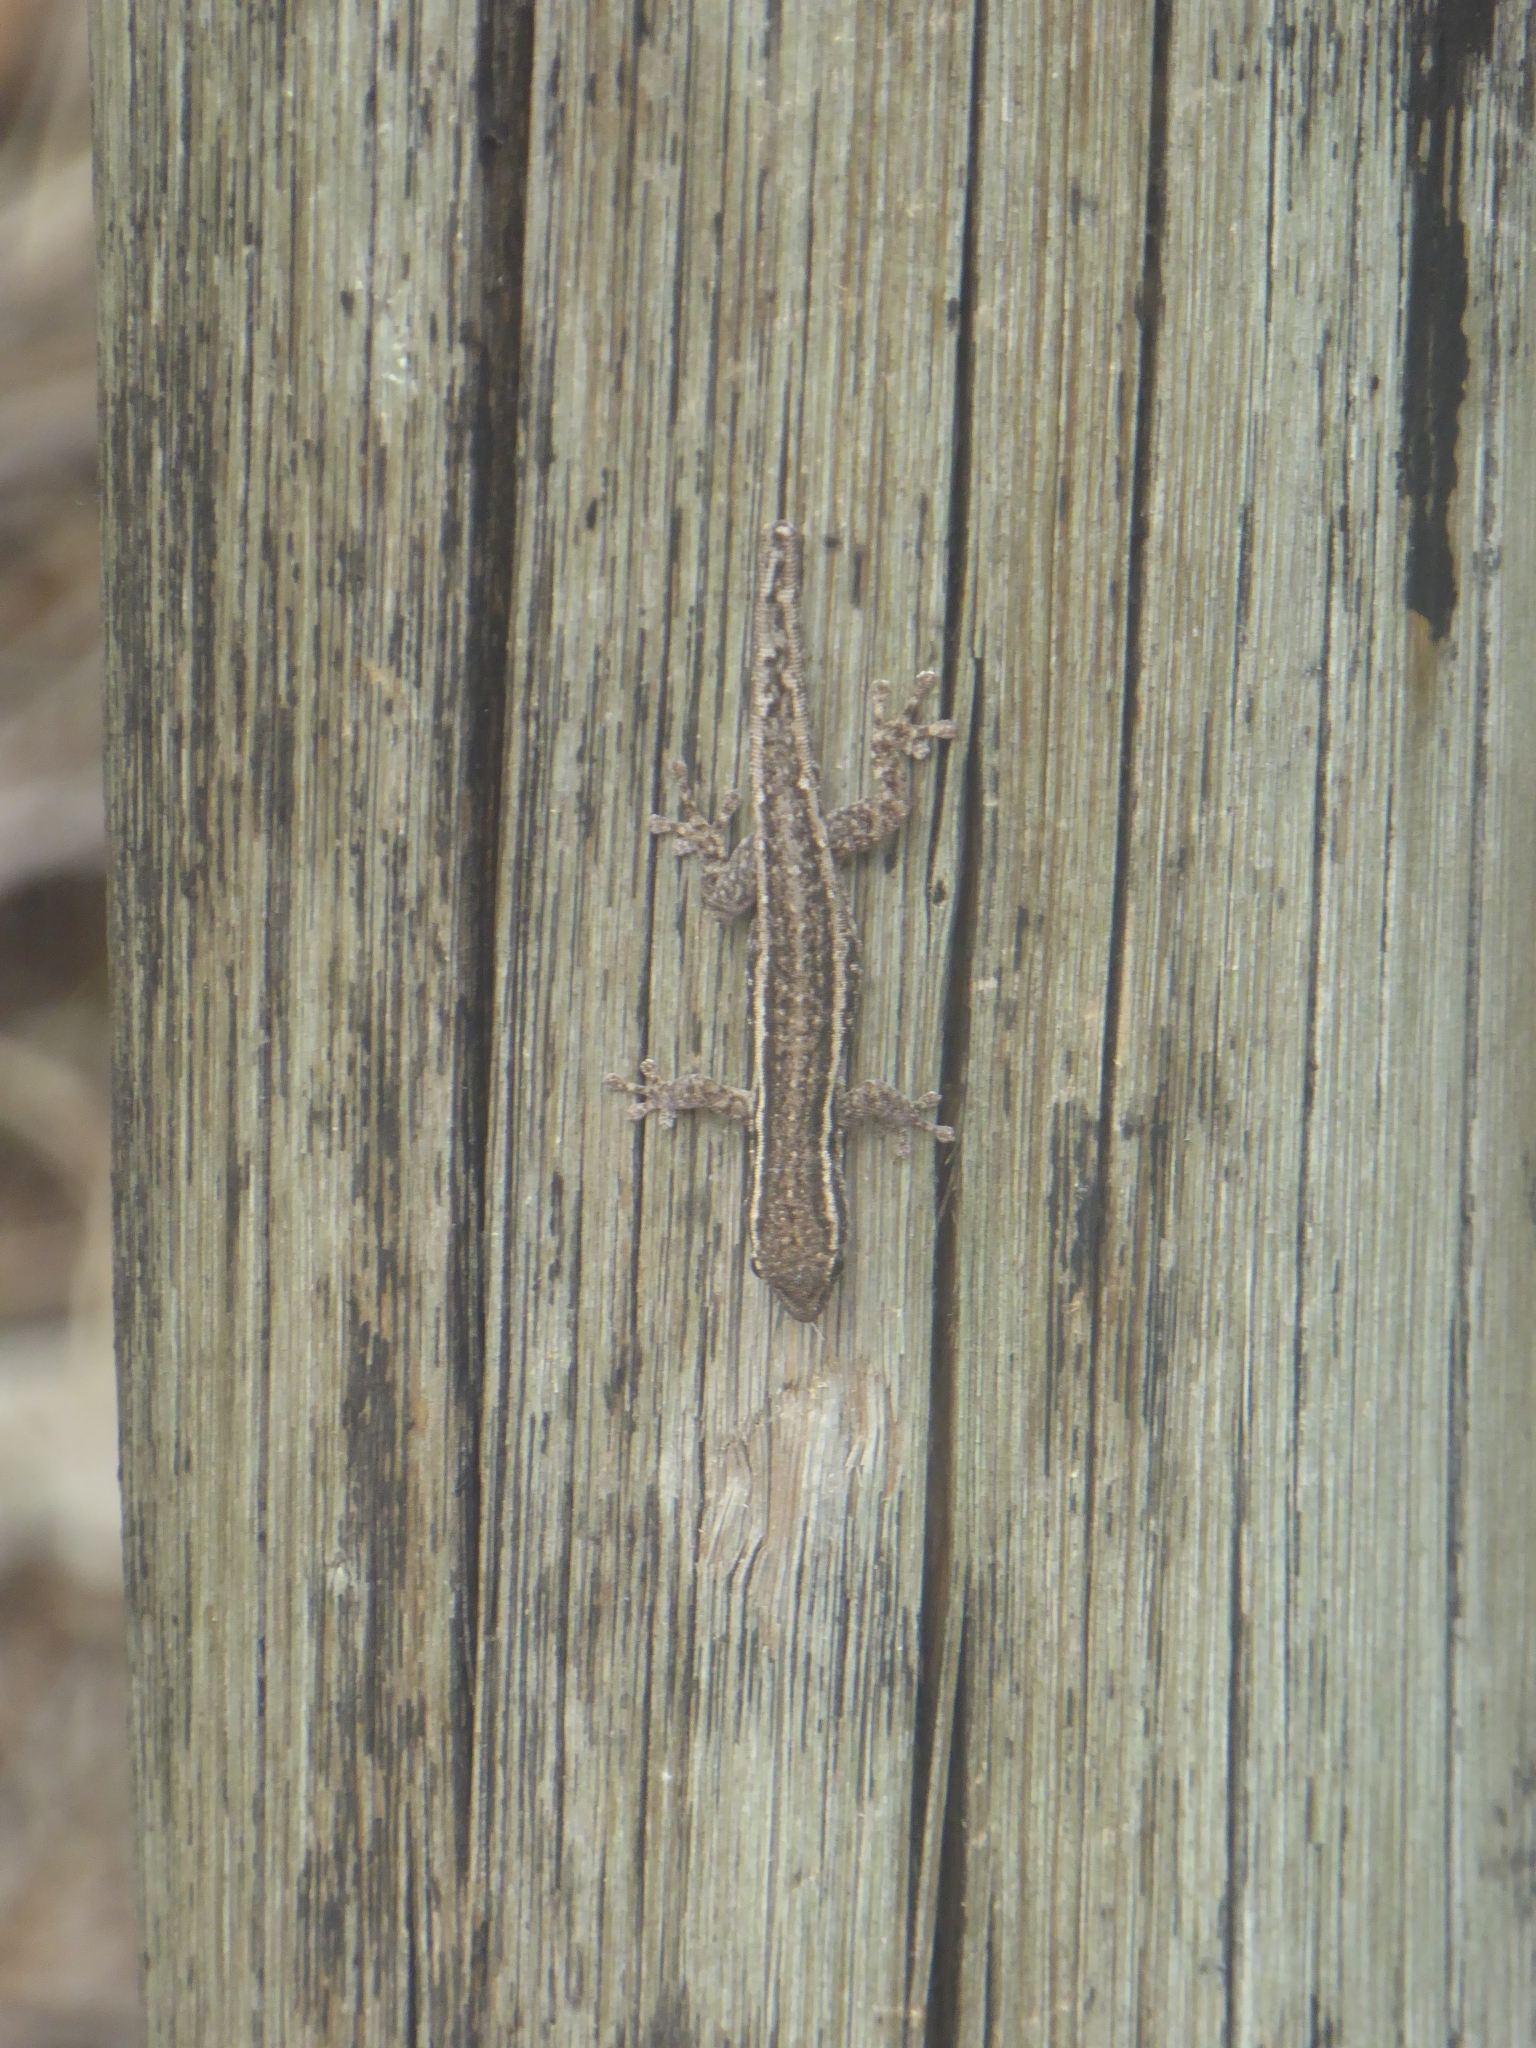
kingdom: Animalia
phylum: Chordata
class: Squamata
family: Gekkonidae
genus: Lygodactylus
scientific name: Lygodactylus capensis
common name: Cape dwarf gecko
